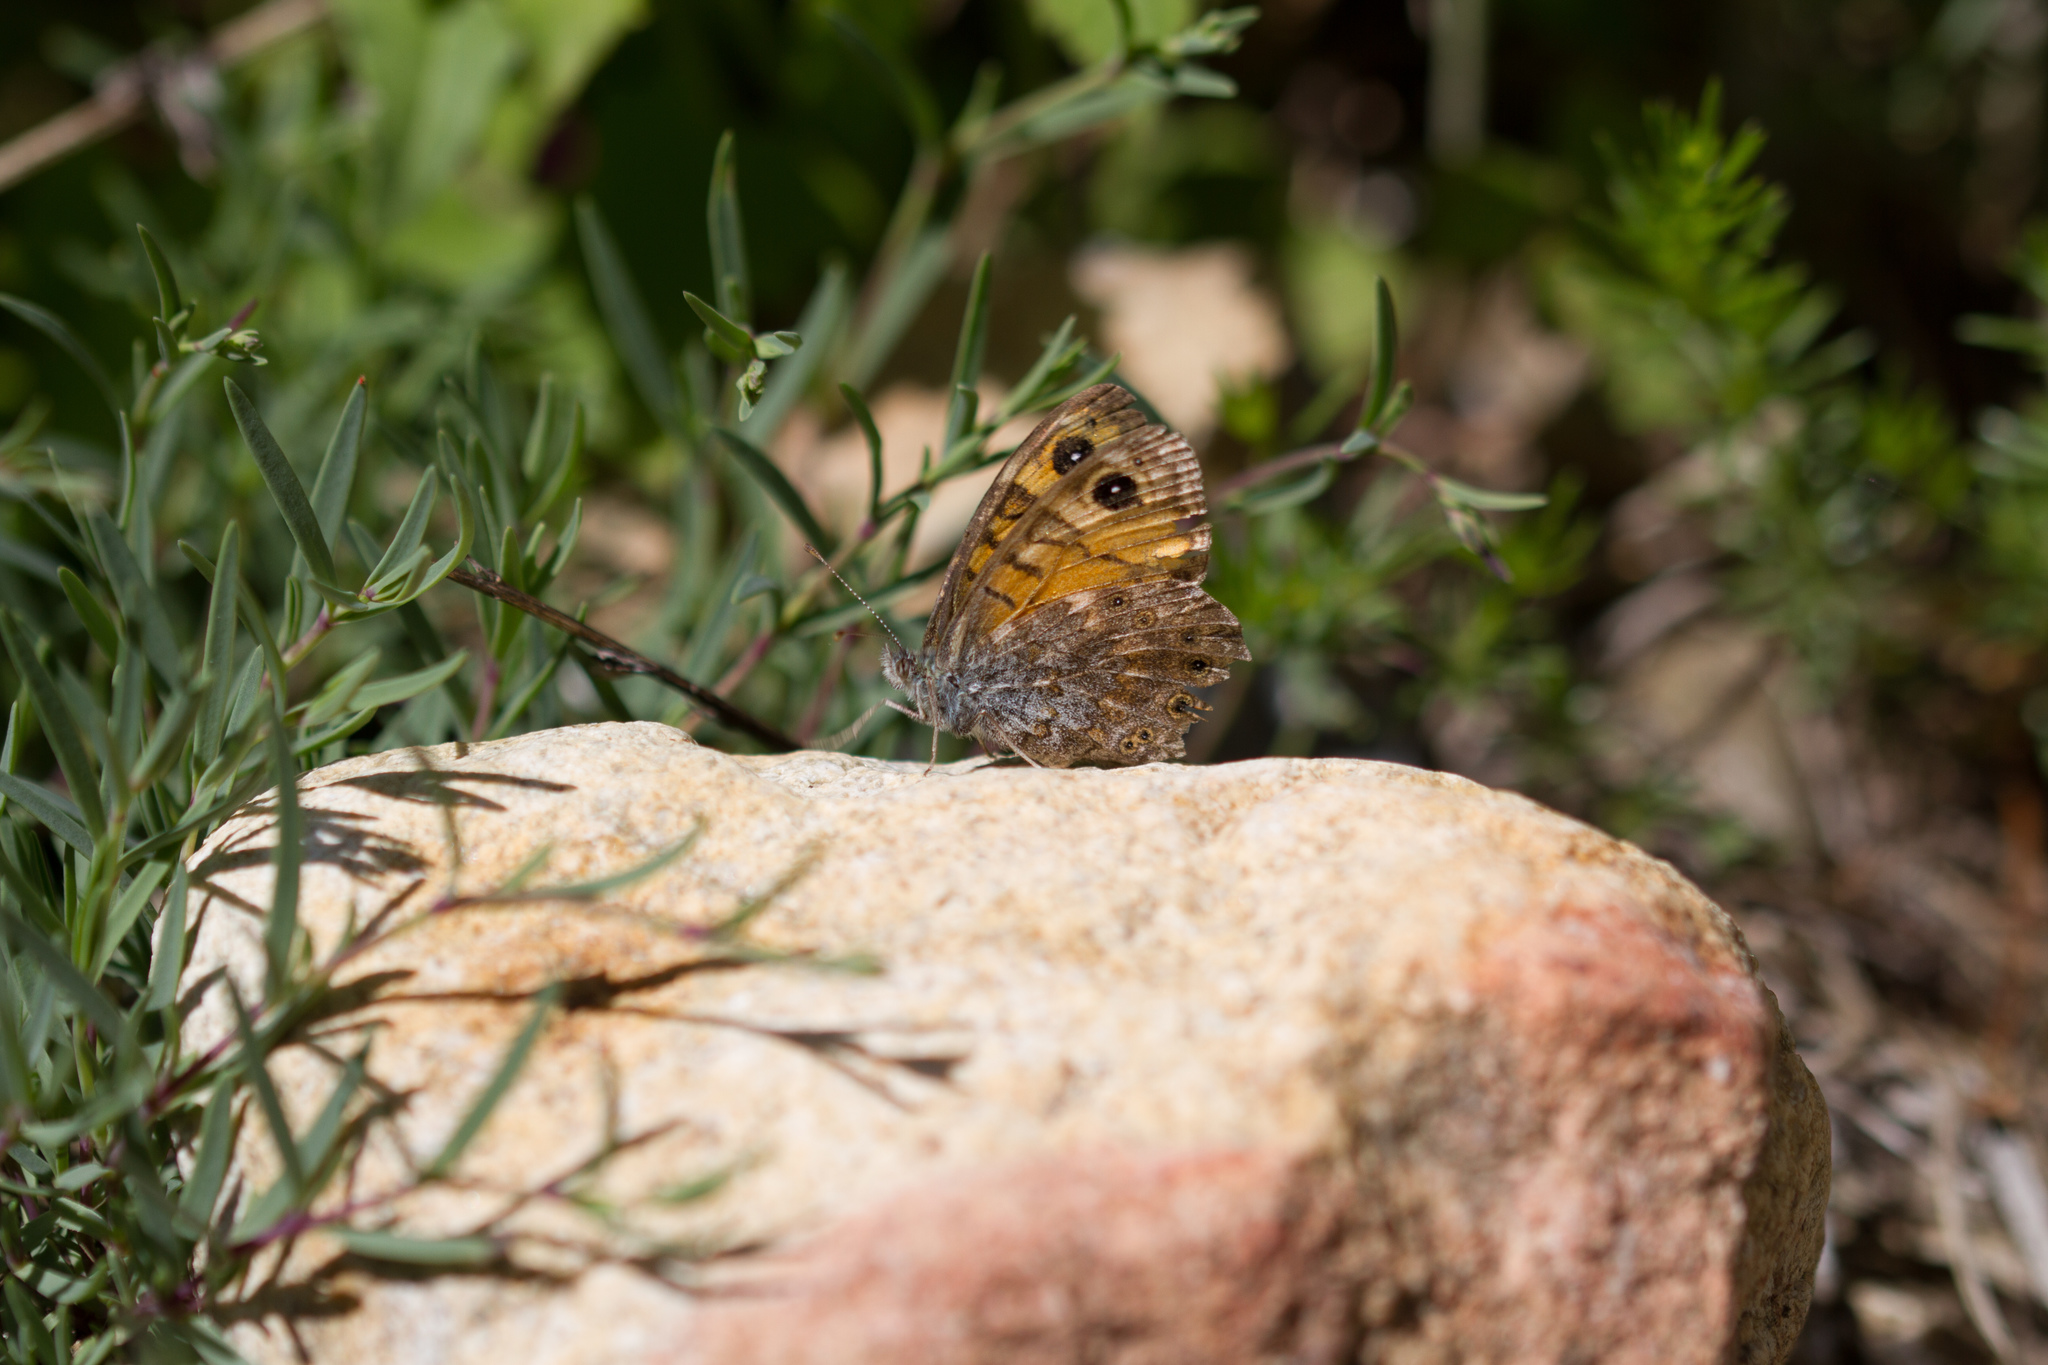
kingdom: Animalia
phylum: Arthropoda
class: Insecta
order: Lepidoptera
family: Nymphalidae
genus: Pararge
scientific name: Pararge Lasiommata megera
